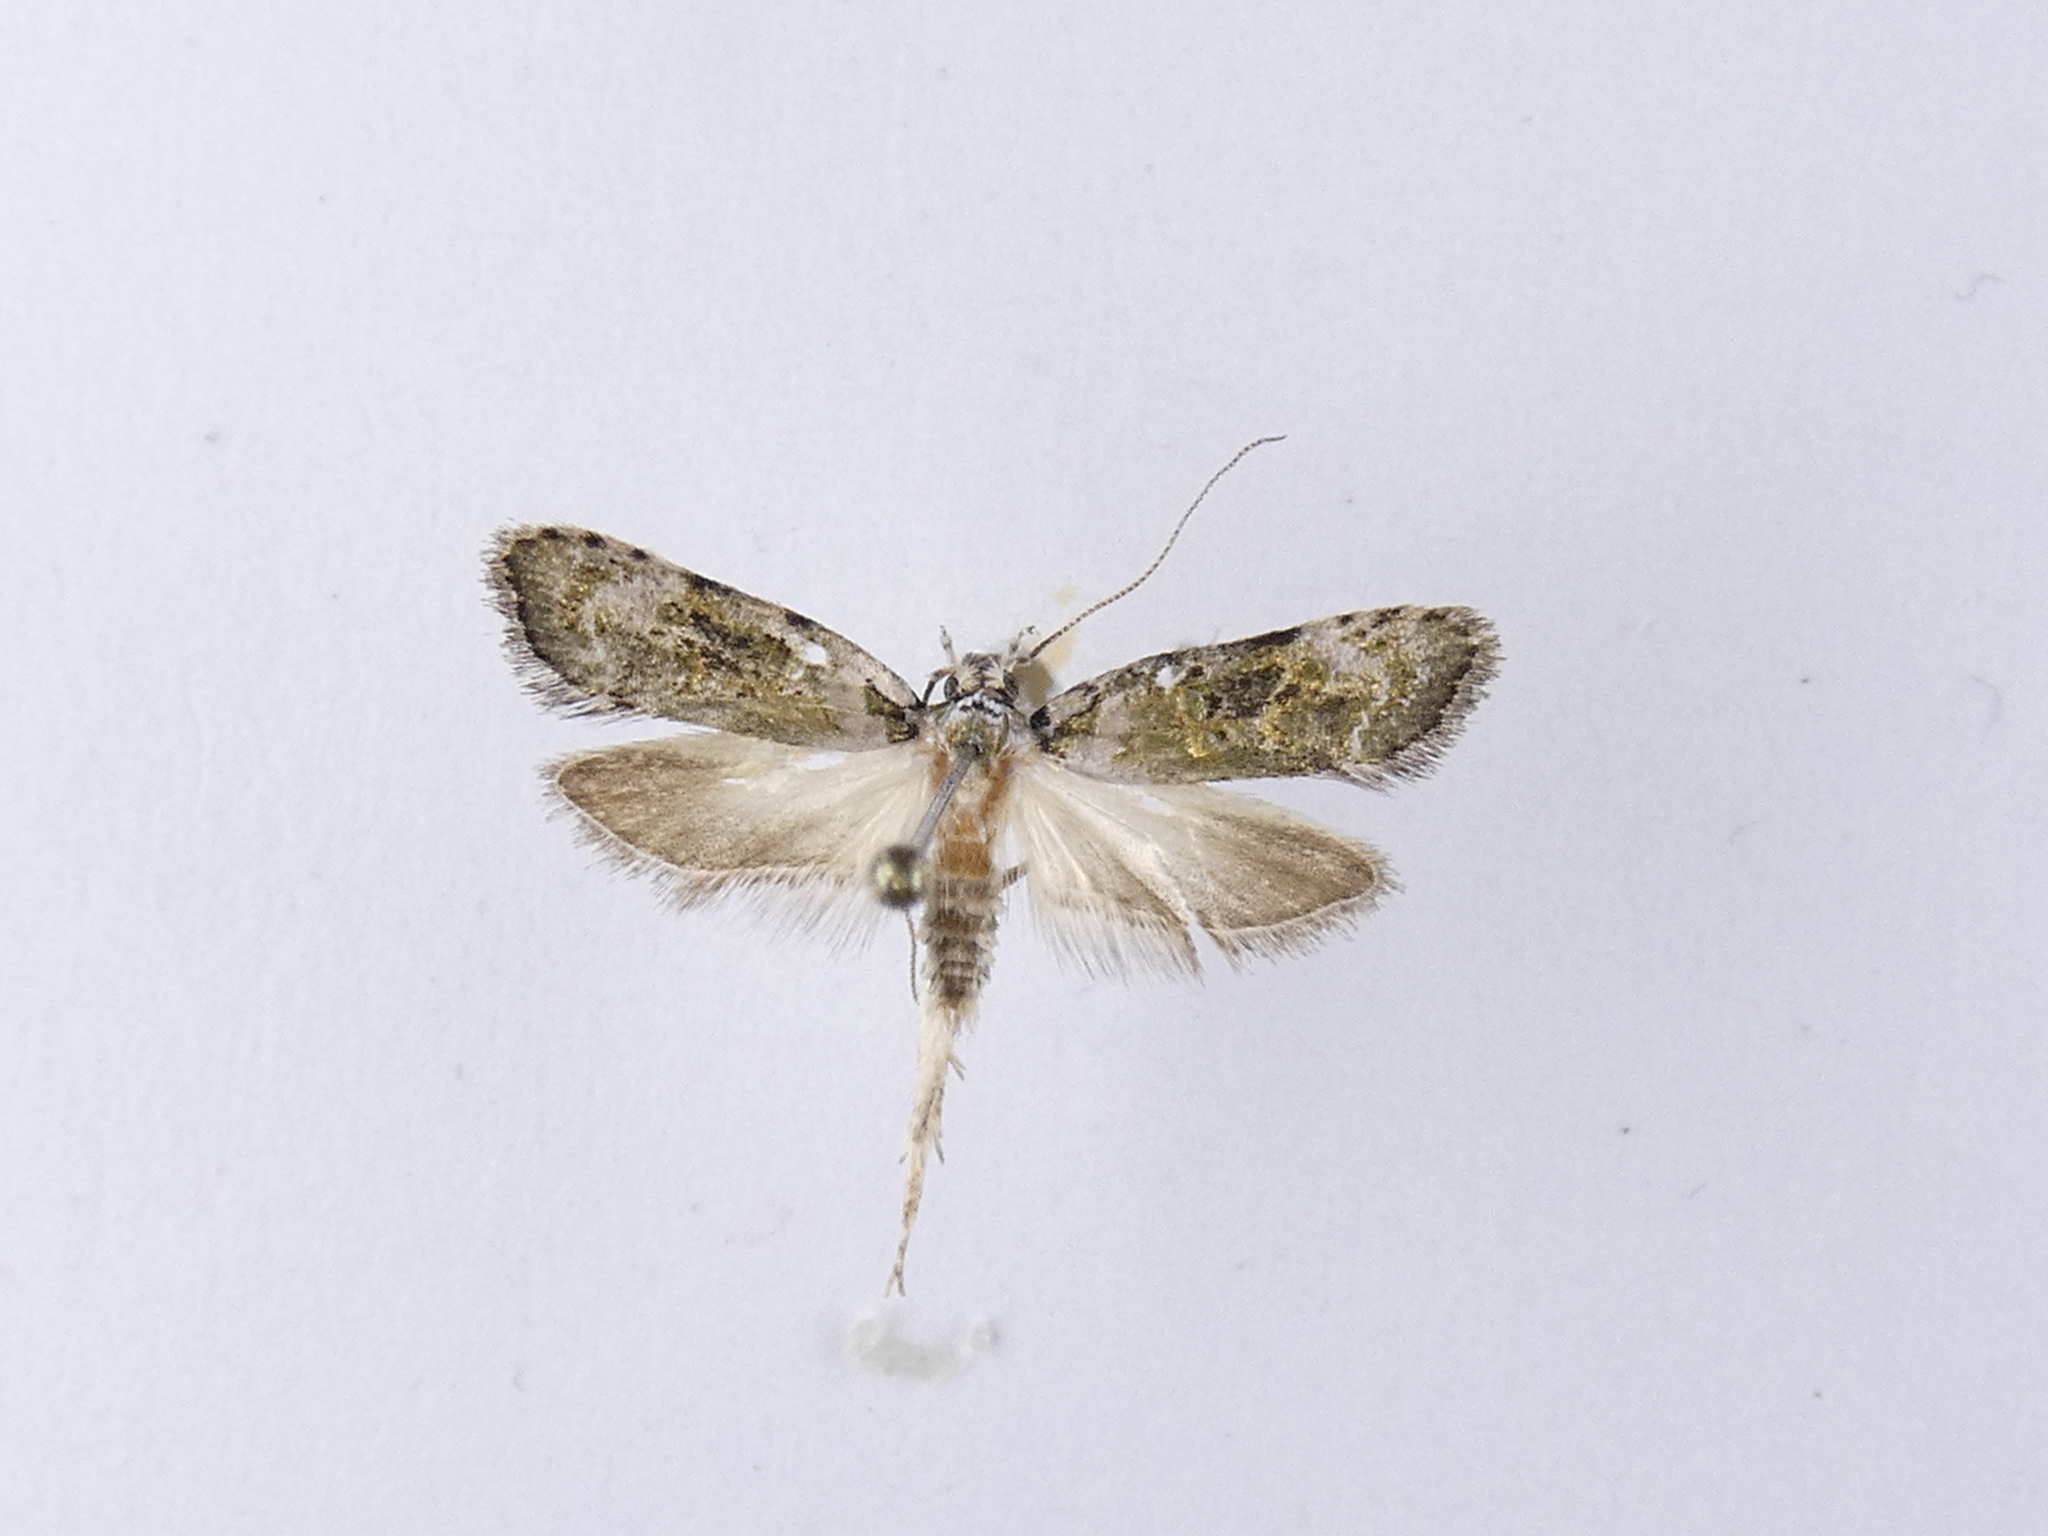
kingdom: Animalia
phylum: Arthropoda
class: Insecta
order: Lepidoptera
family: Oecophoridae
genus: Izatha
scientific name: Izatha prasophyta
